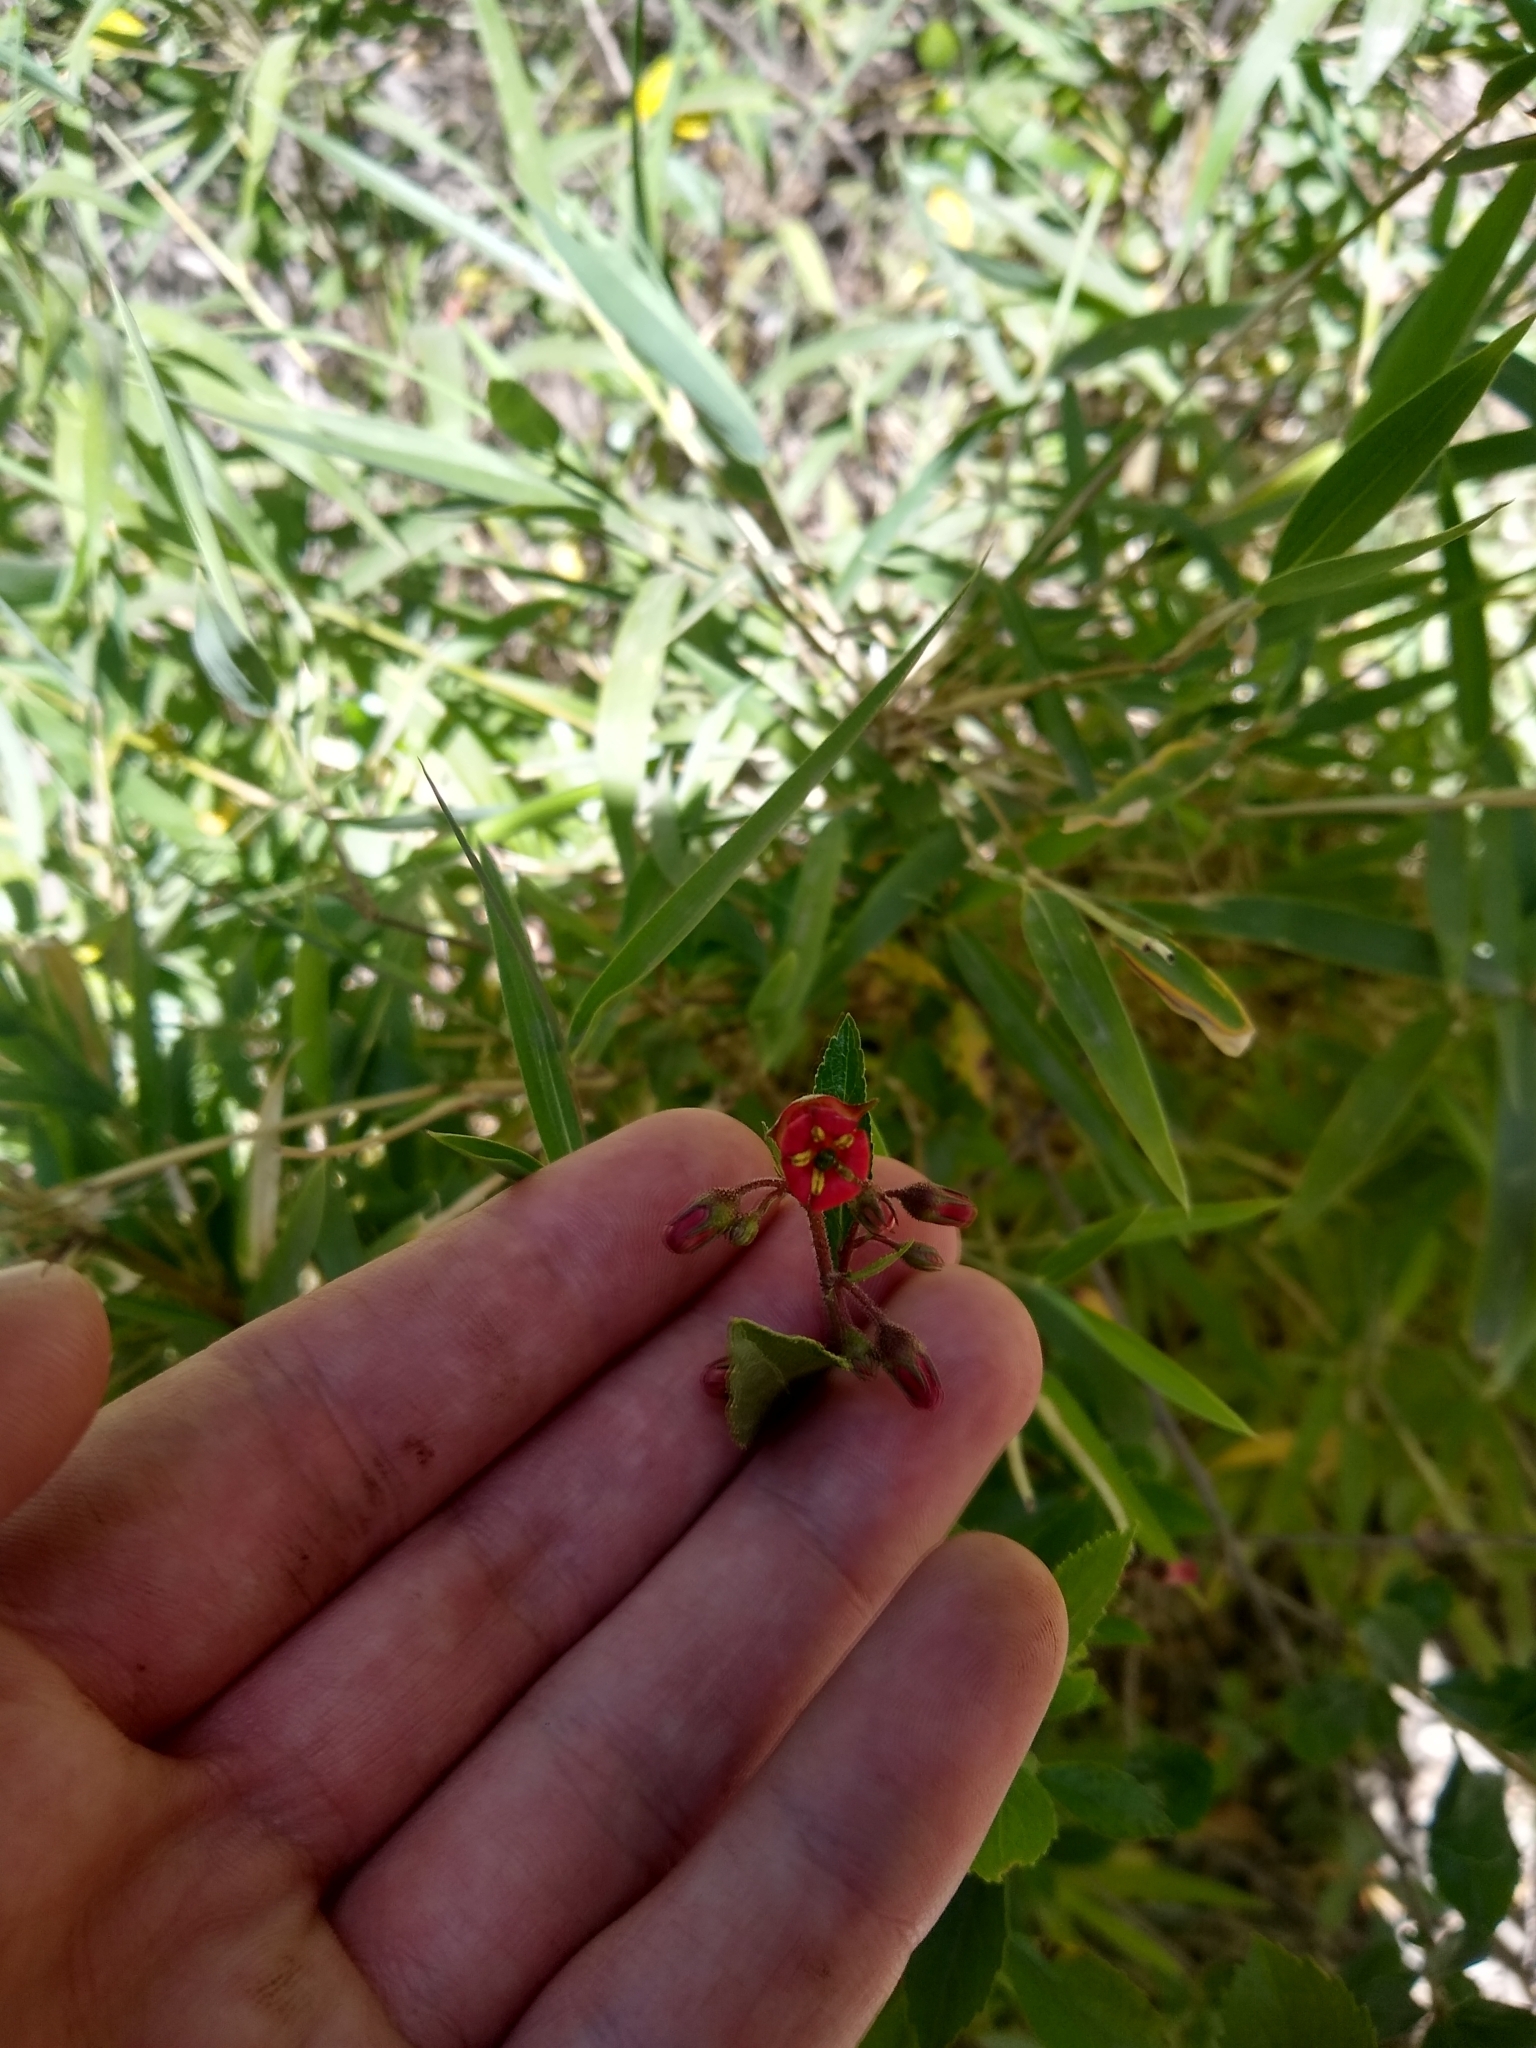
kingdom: Plantae
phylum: Tracheophyta
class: Magnoliopsida
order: Escalloniales
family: Escalloniaceae
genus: Escallonia
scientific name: Escallonia rubra
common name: Redclaws
